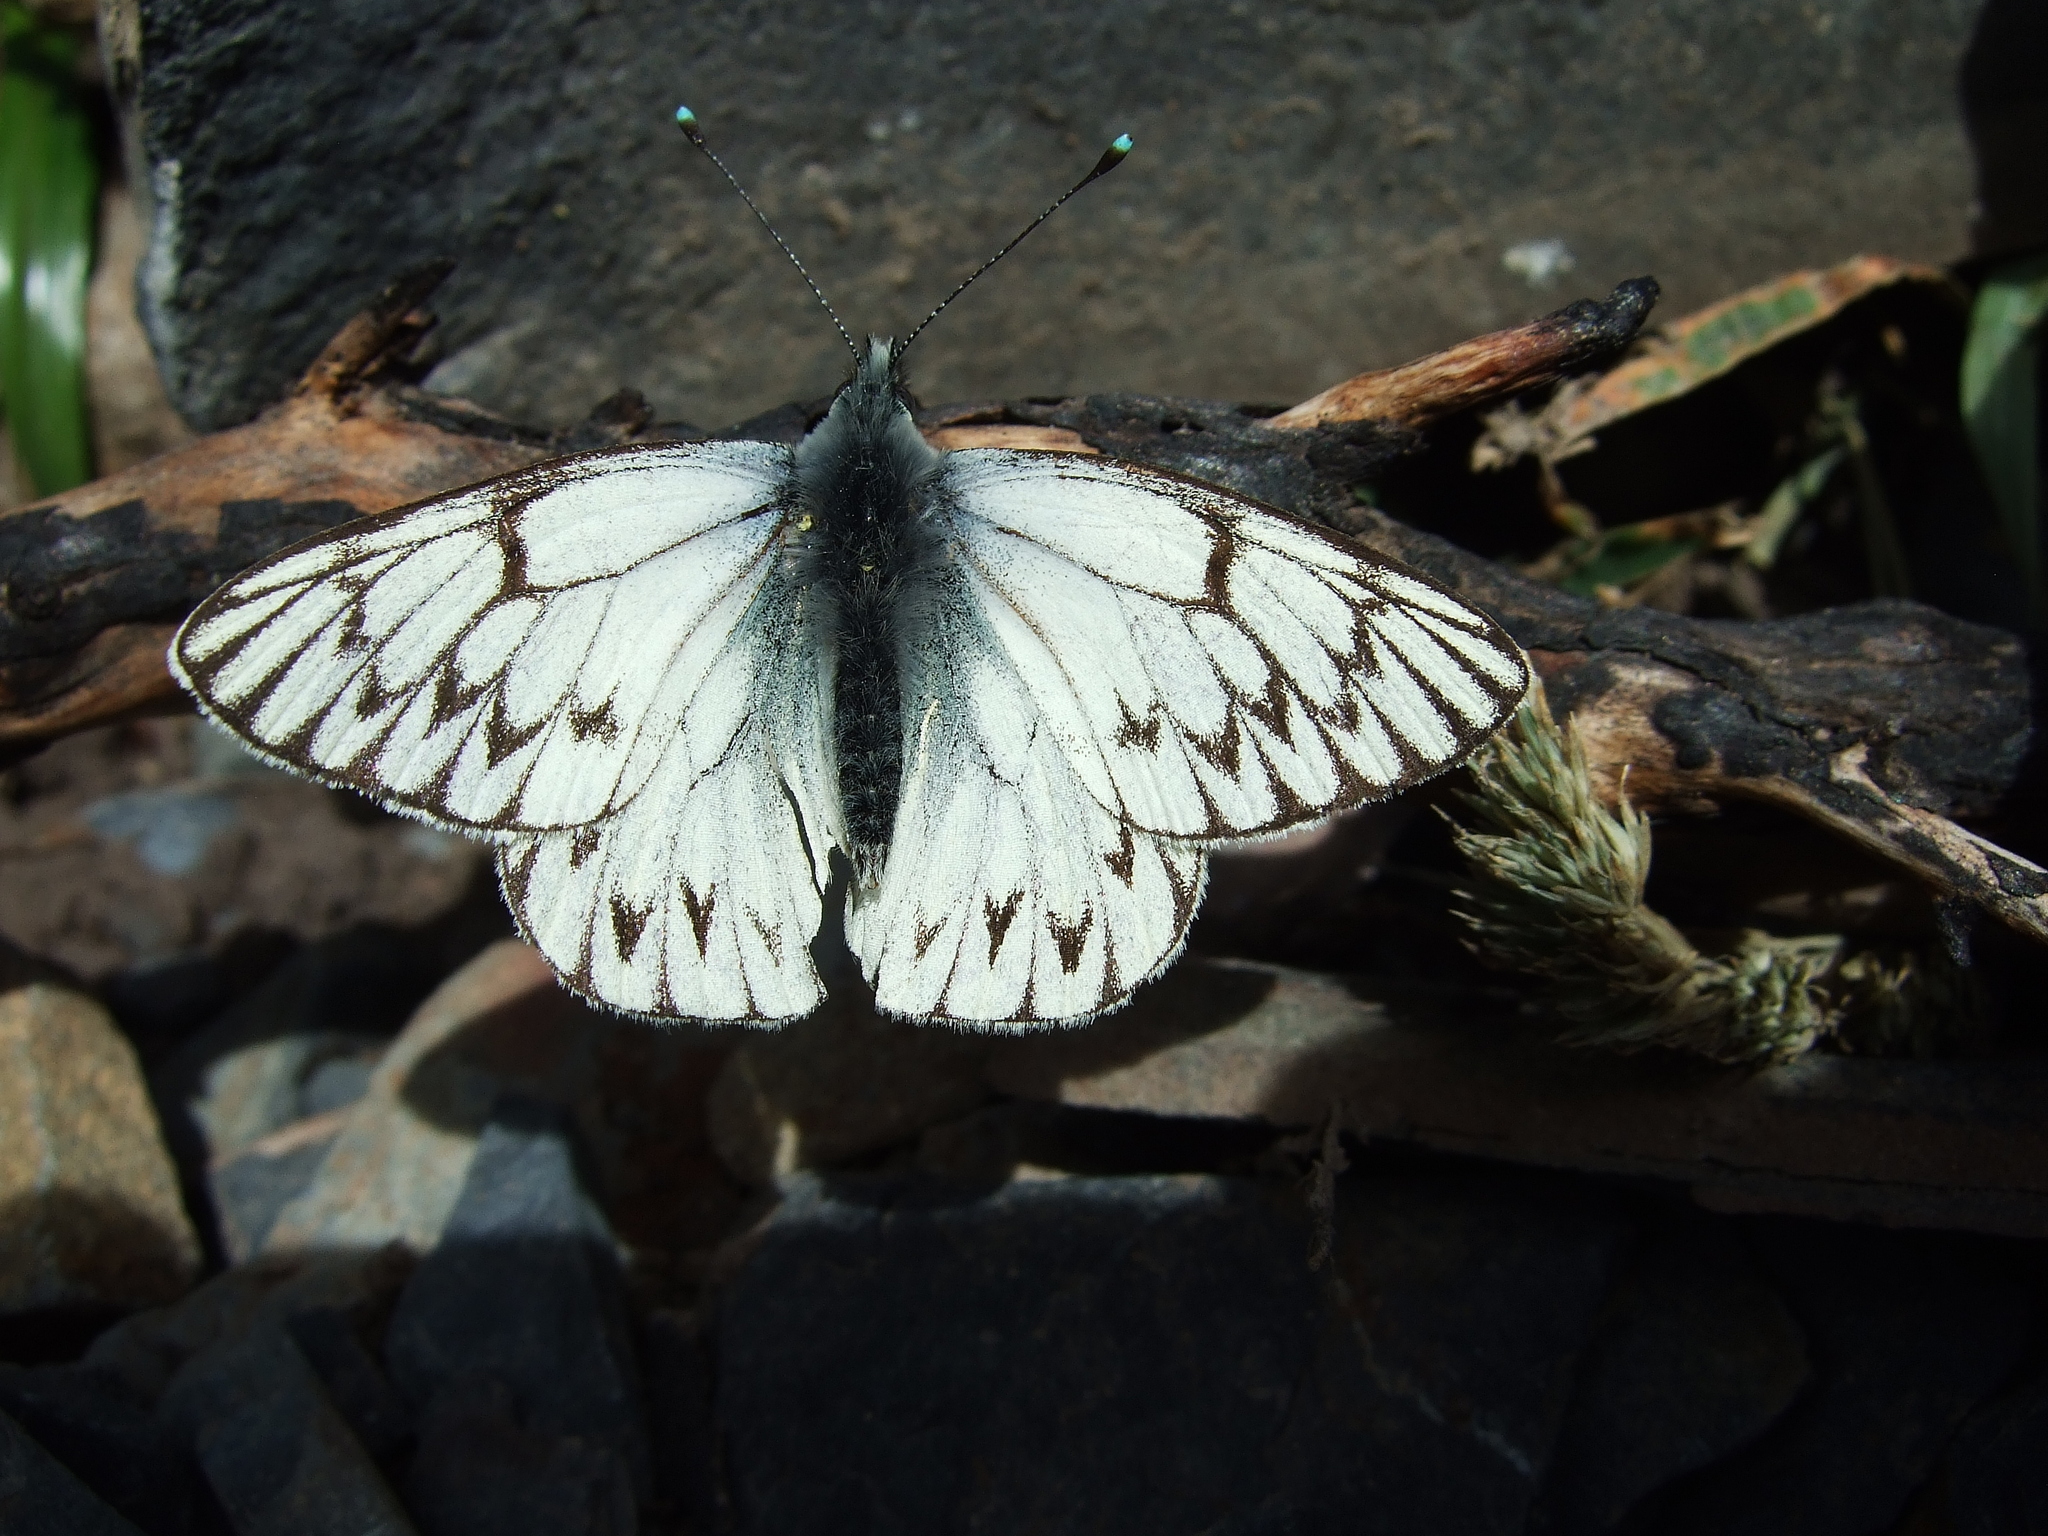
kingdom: Animalia
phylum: Arthropoda
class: Insecta
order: Lepidoptera
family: Pieridae
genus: Tatochila
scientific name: Tatochila theodice
